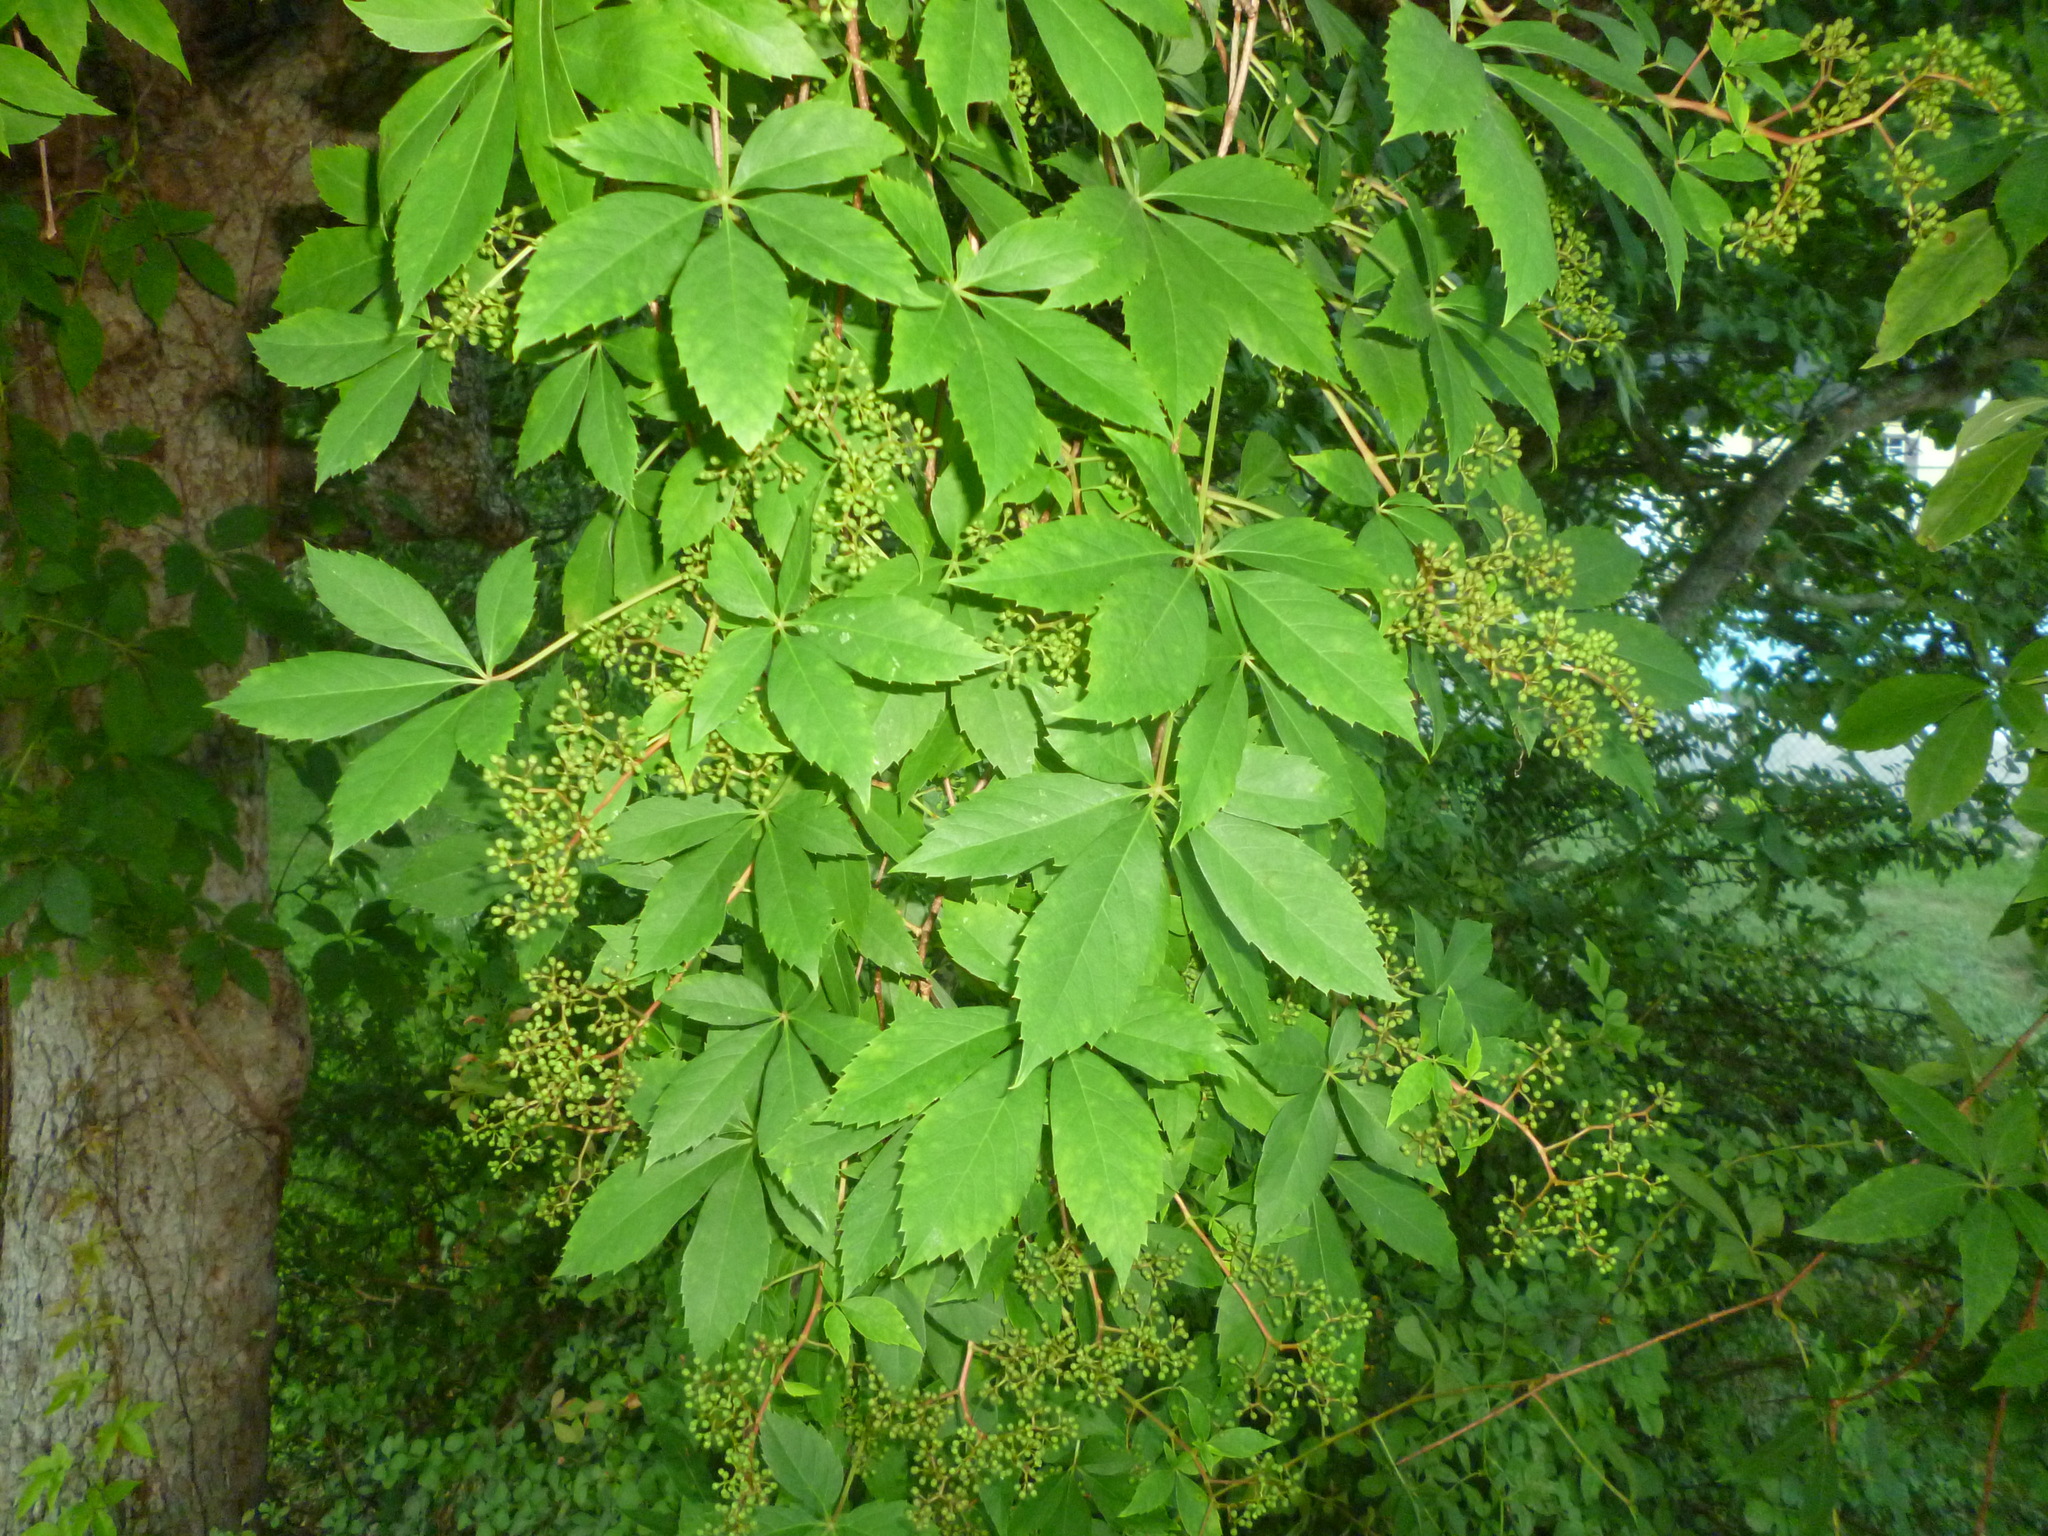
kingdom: Plantae
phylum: Tracheophyta
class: Magnoliopsida
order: Vitales
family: Vitaceae
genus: Parthenocissus
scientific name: Parthenocissus quinquefolia
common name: Virginia-creeper
